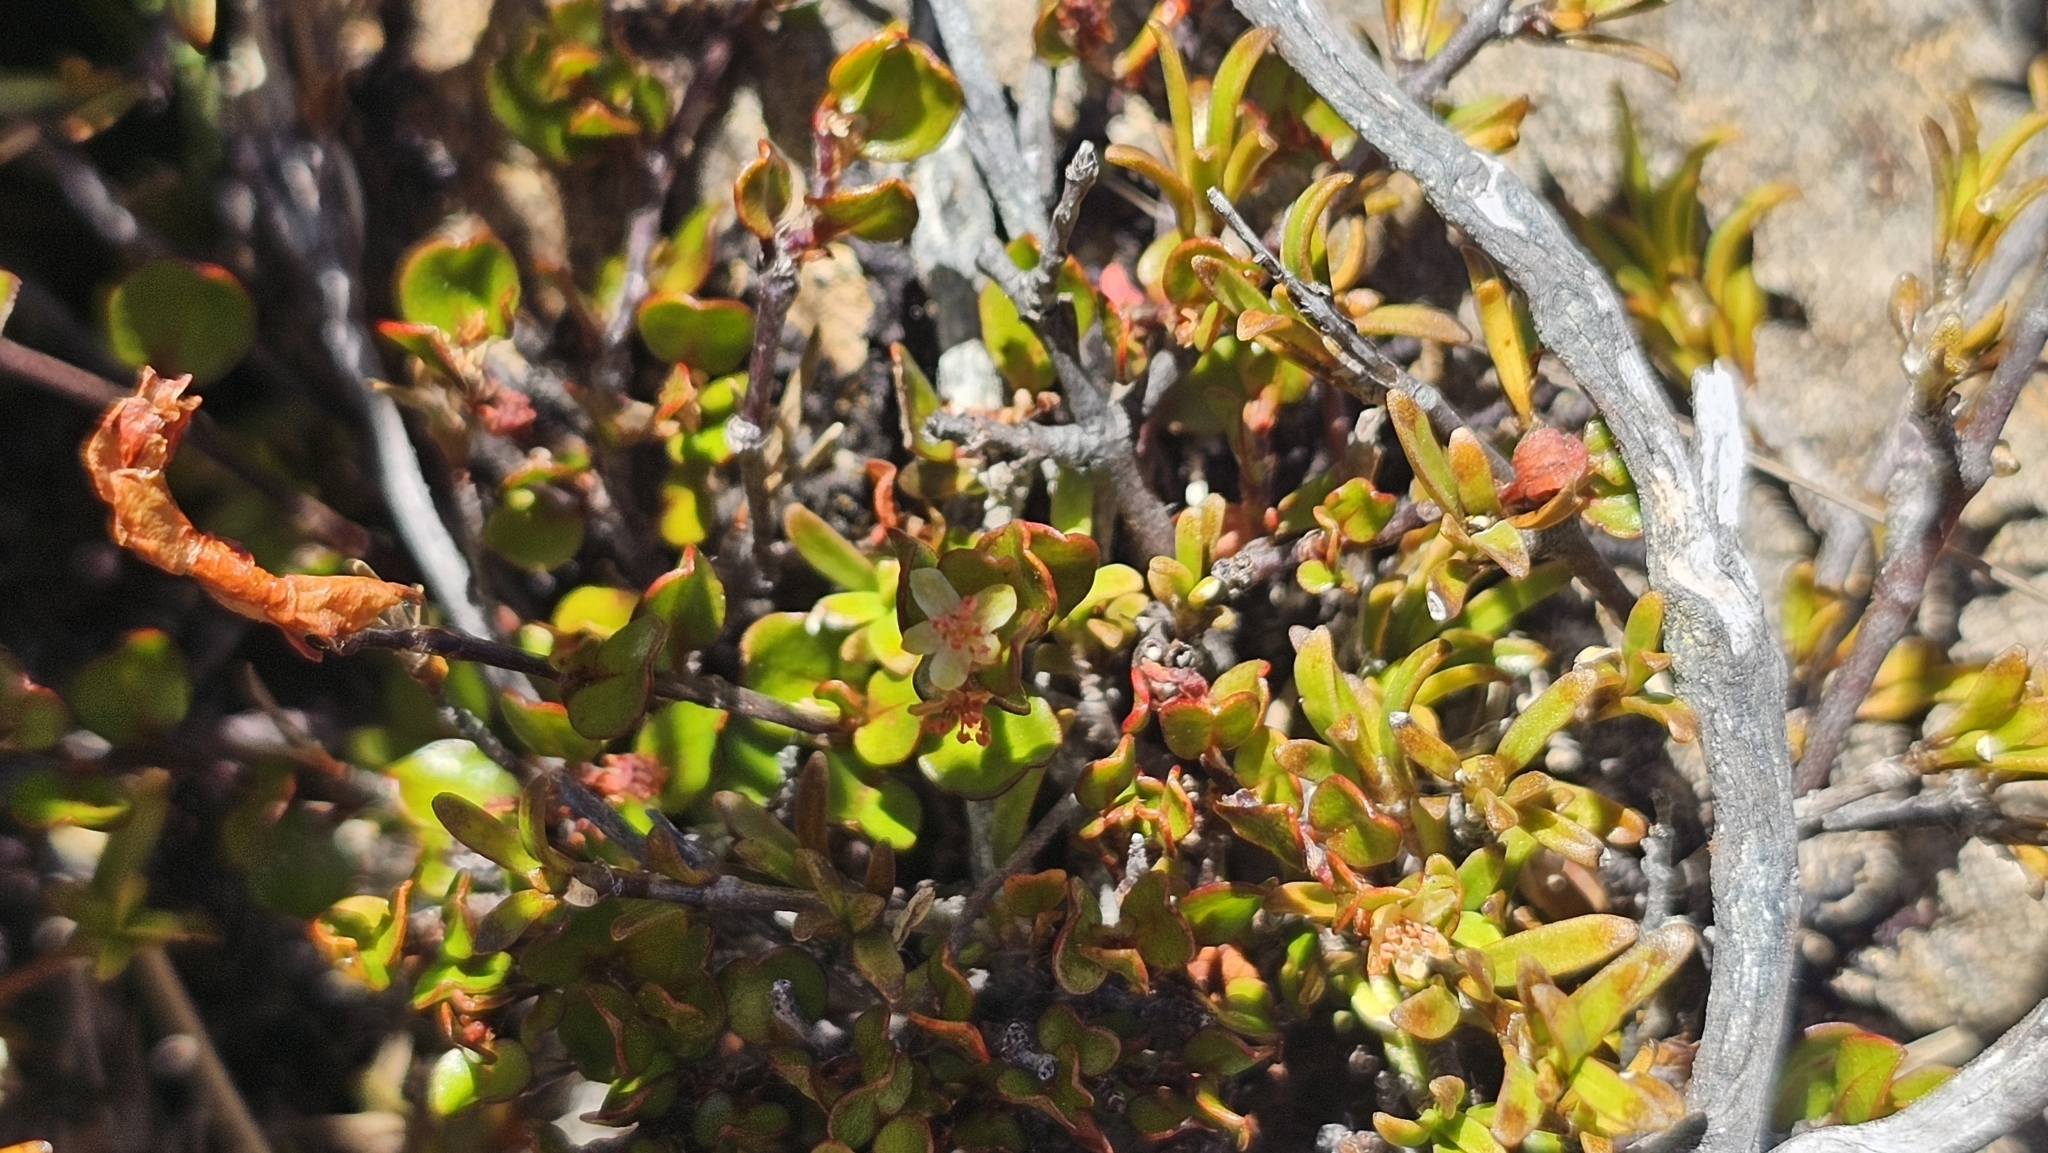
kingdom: Plantae
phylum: Tracheophyta
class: Magnoliopsida
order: Caryophyllales
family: Polygonaceae
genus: Muehlenbeckia
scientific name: Muehlenbeckia axillaris
